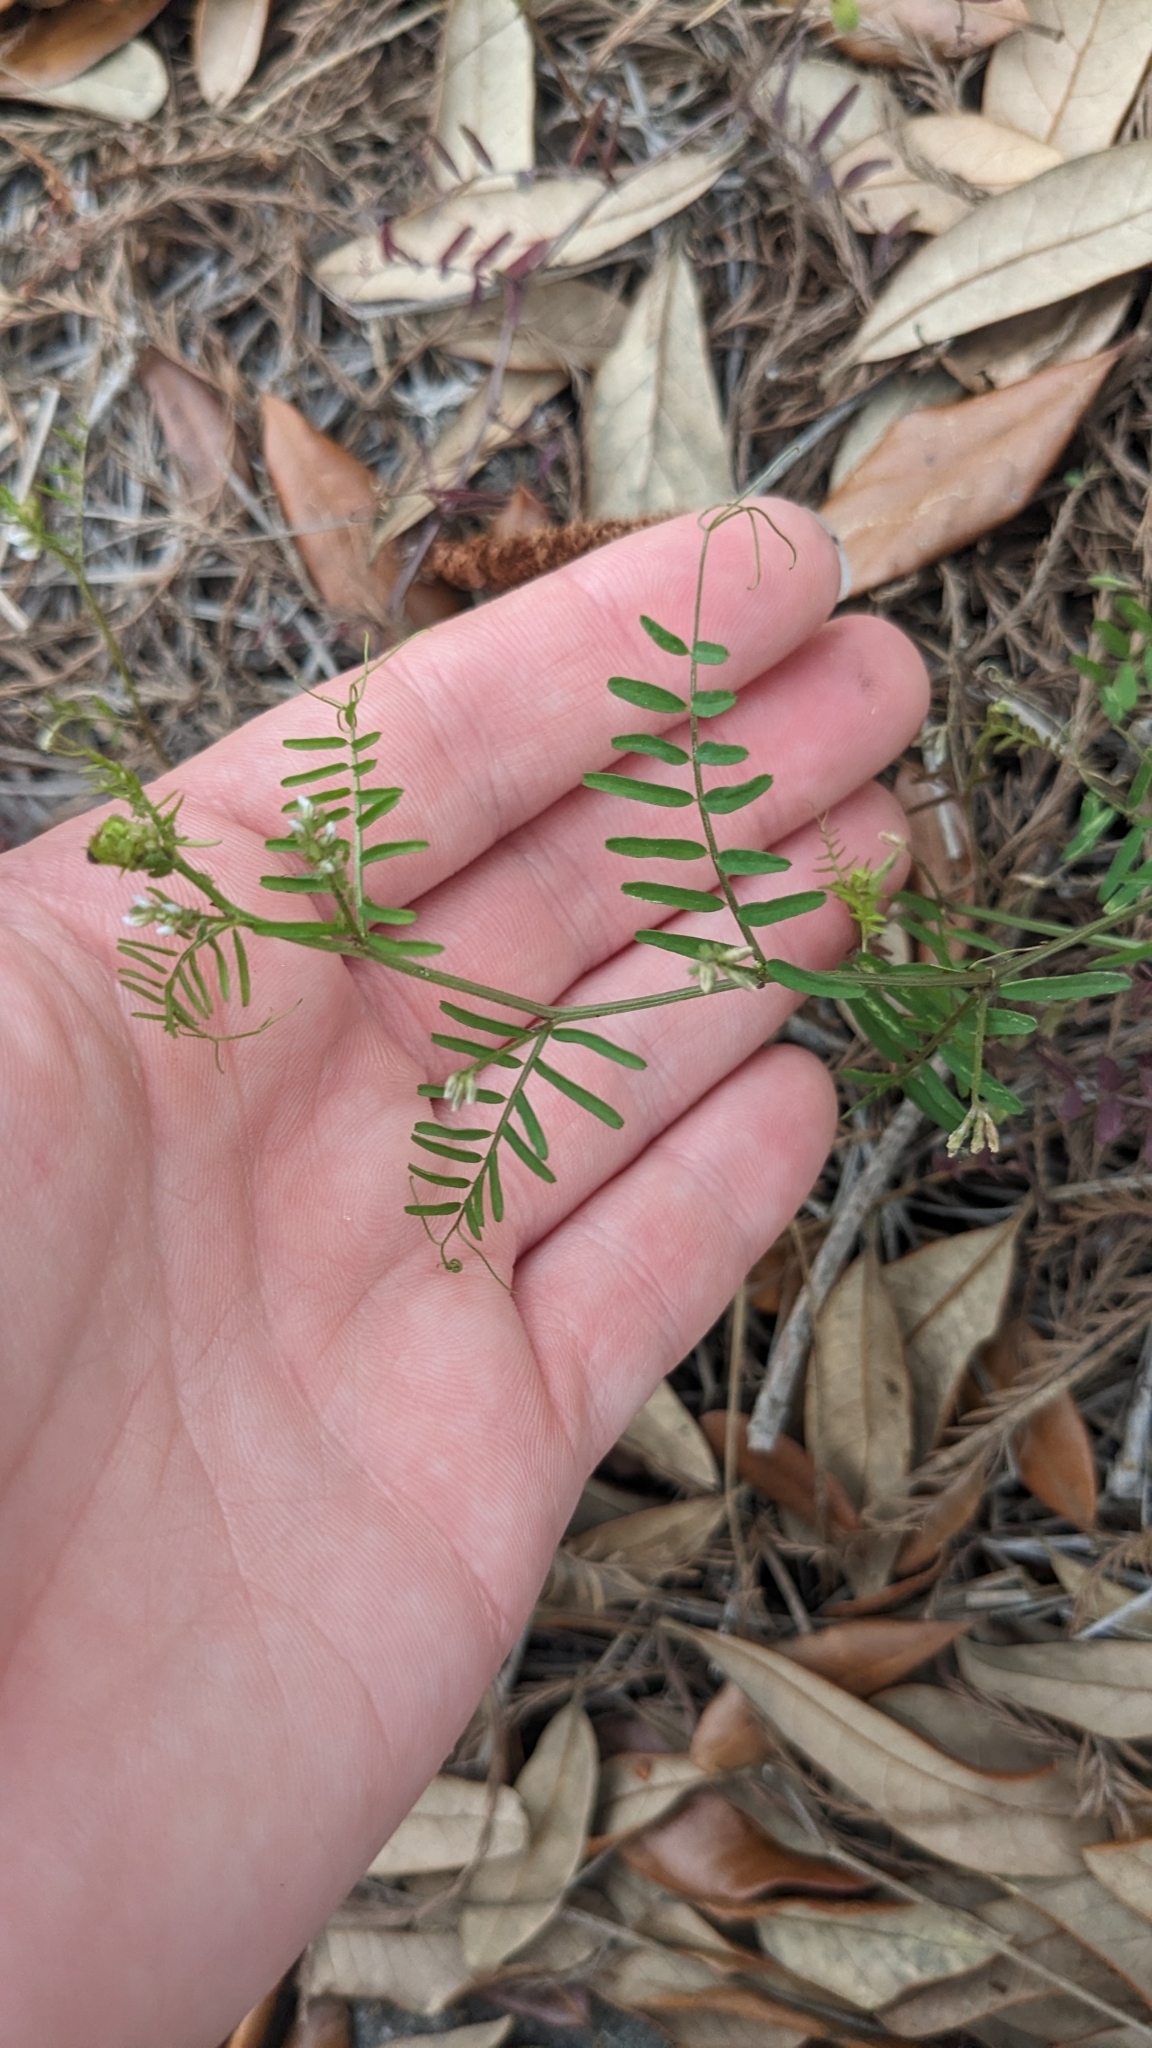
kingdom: Plantae
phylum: Tracheophyta
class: Magnoliopsida
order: Fabales
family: Fabaceae
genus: Vicia
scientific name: Vicia hirsuta
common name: Tiny vetch
